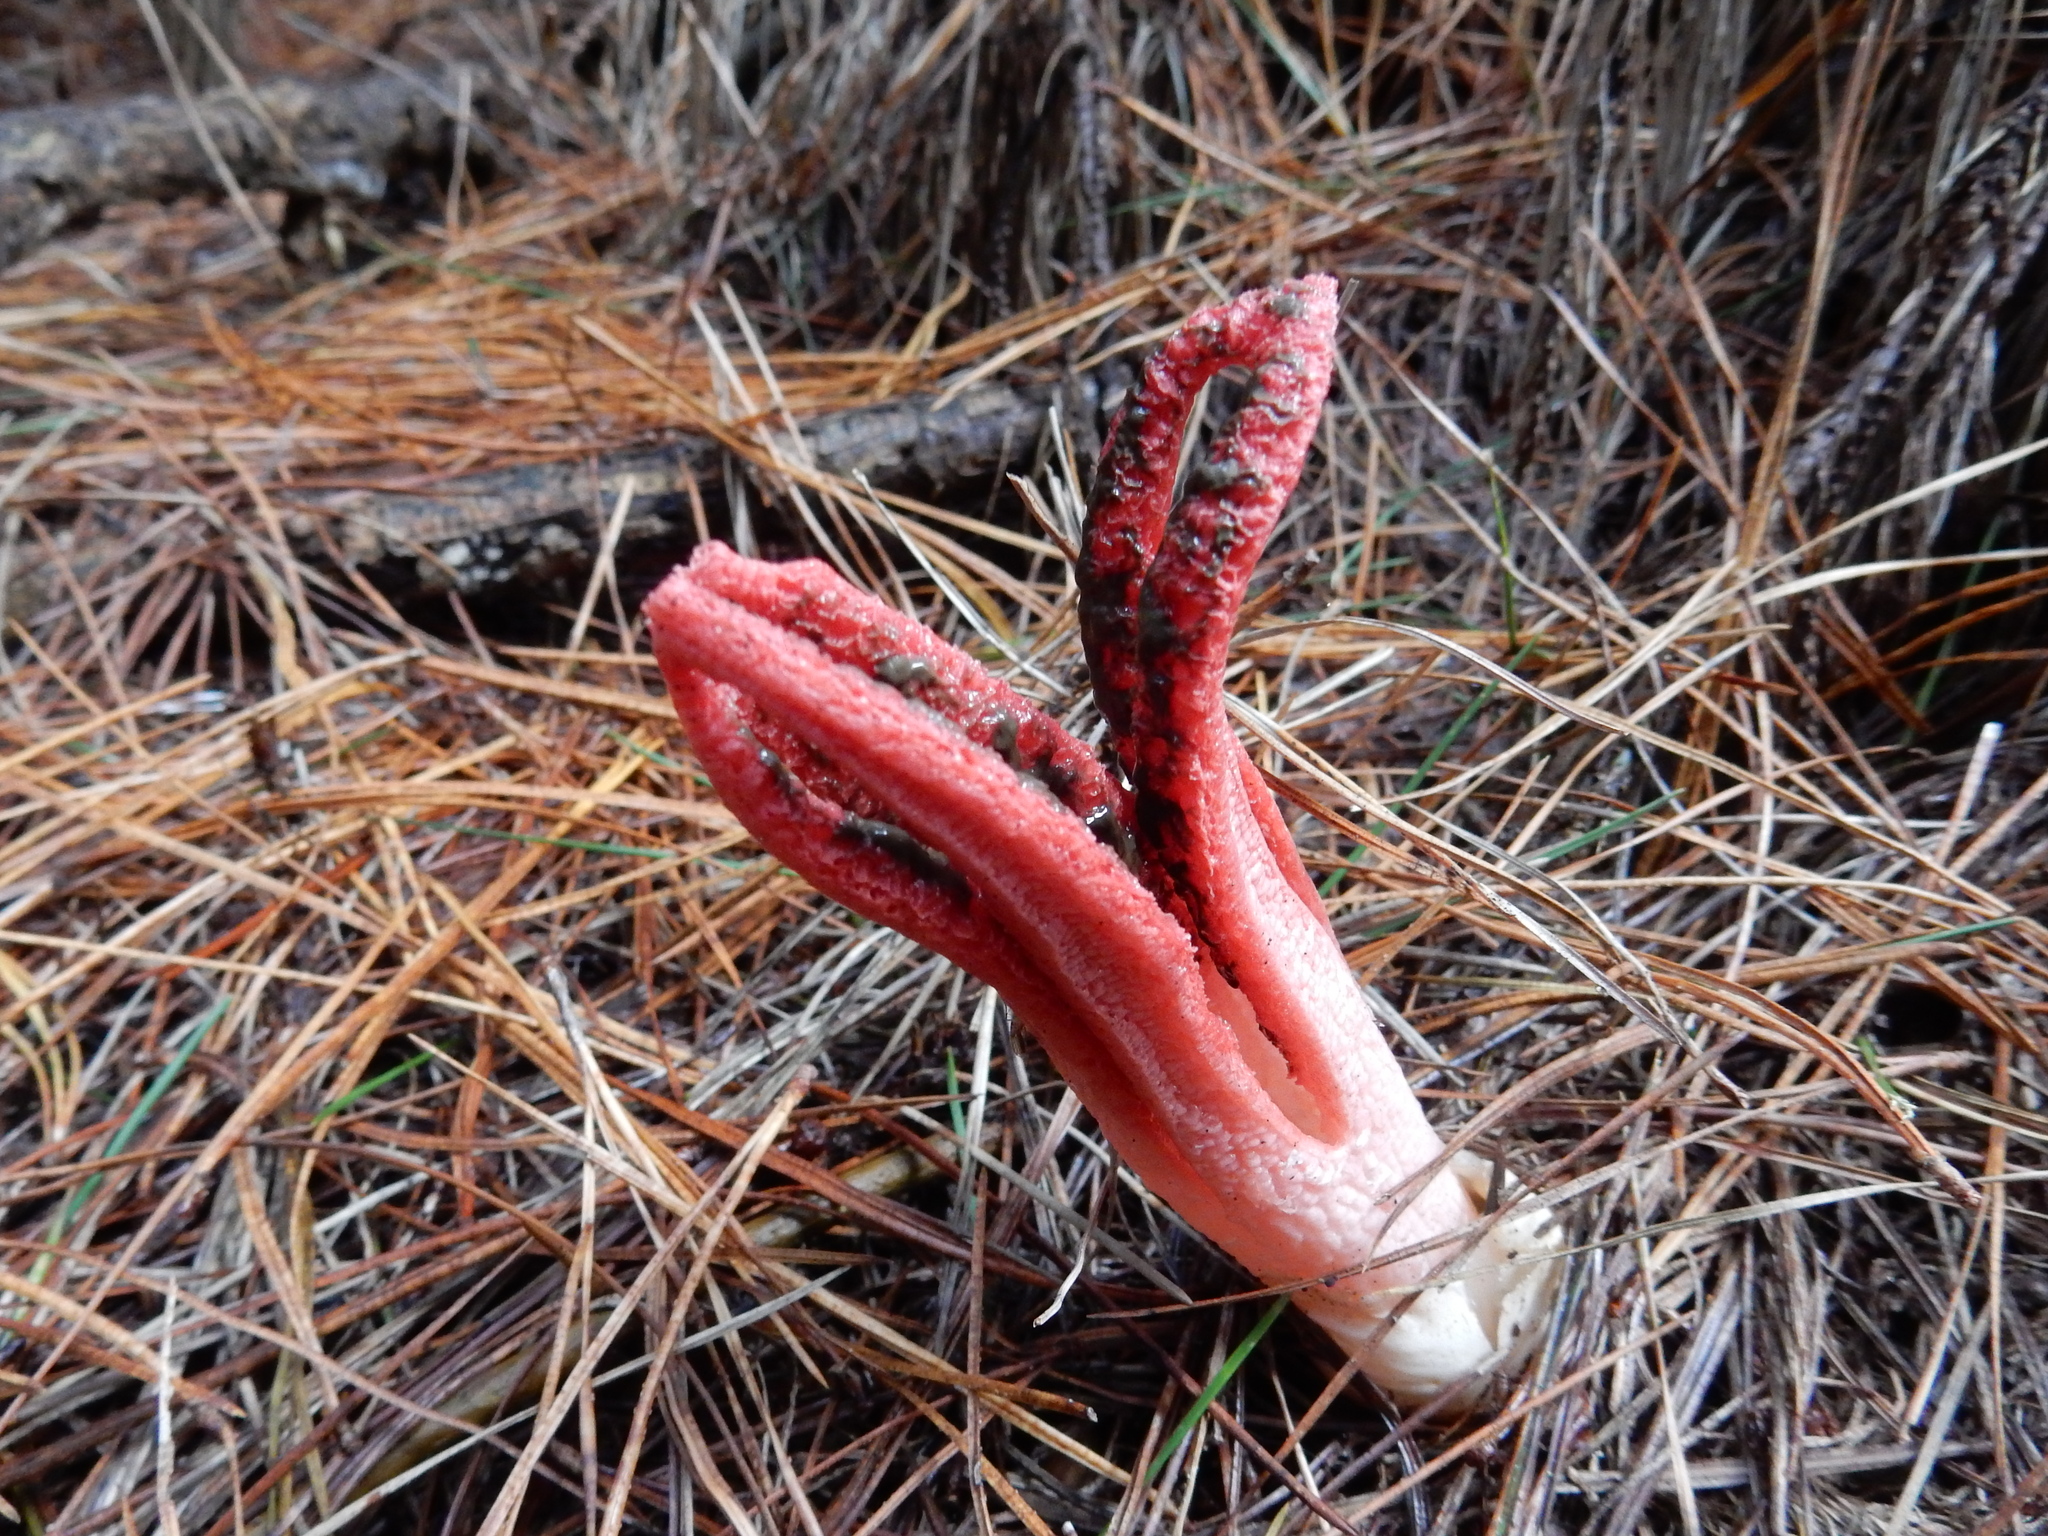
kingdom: Fungi
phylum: Basidiomycota
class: Agaricomycetes
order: Phallales
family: Phallaceae
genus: Clathrus
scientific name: Clathrus archeri
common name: Devil's fingers
